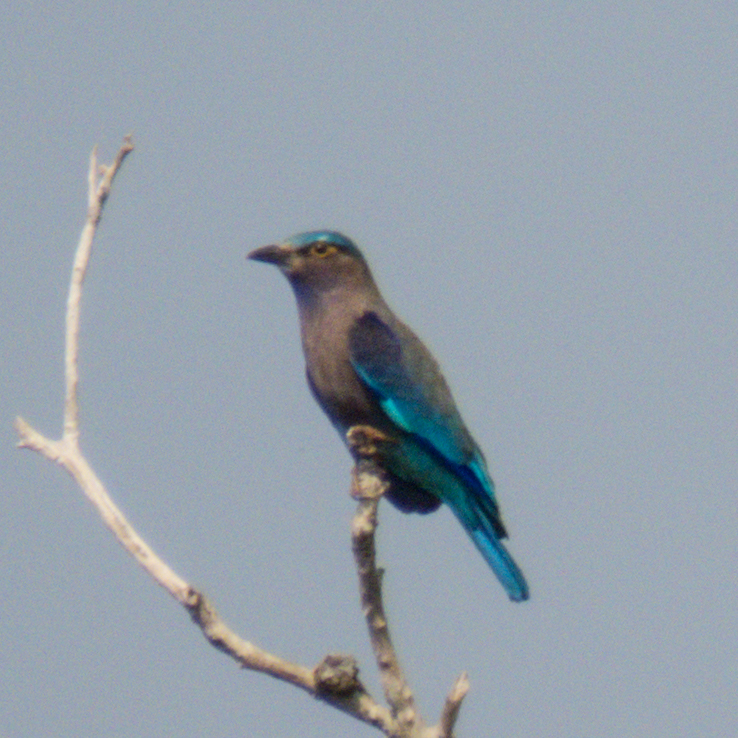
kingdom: Animalia
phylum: Chordata
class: Aves
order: Coraciiformes
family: Coraciidae
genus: Coracias
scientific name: Coracias affinis
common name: Indochinese roller
